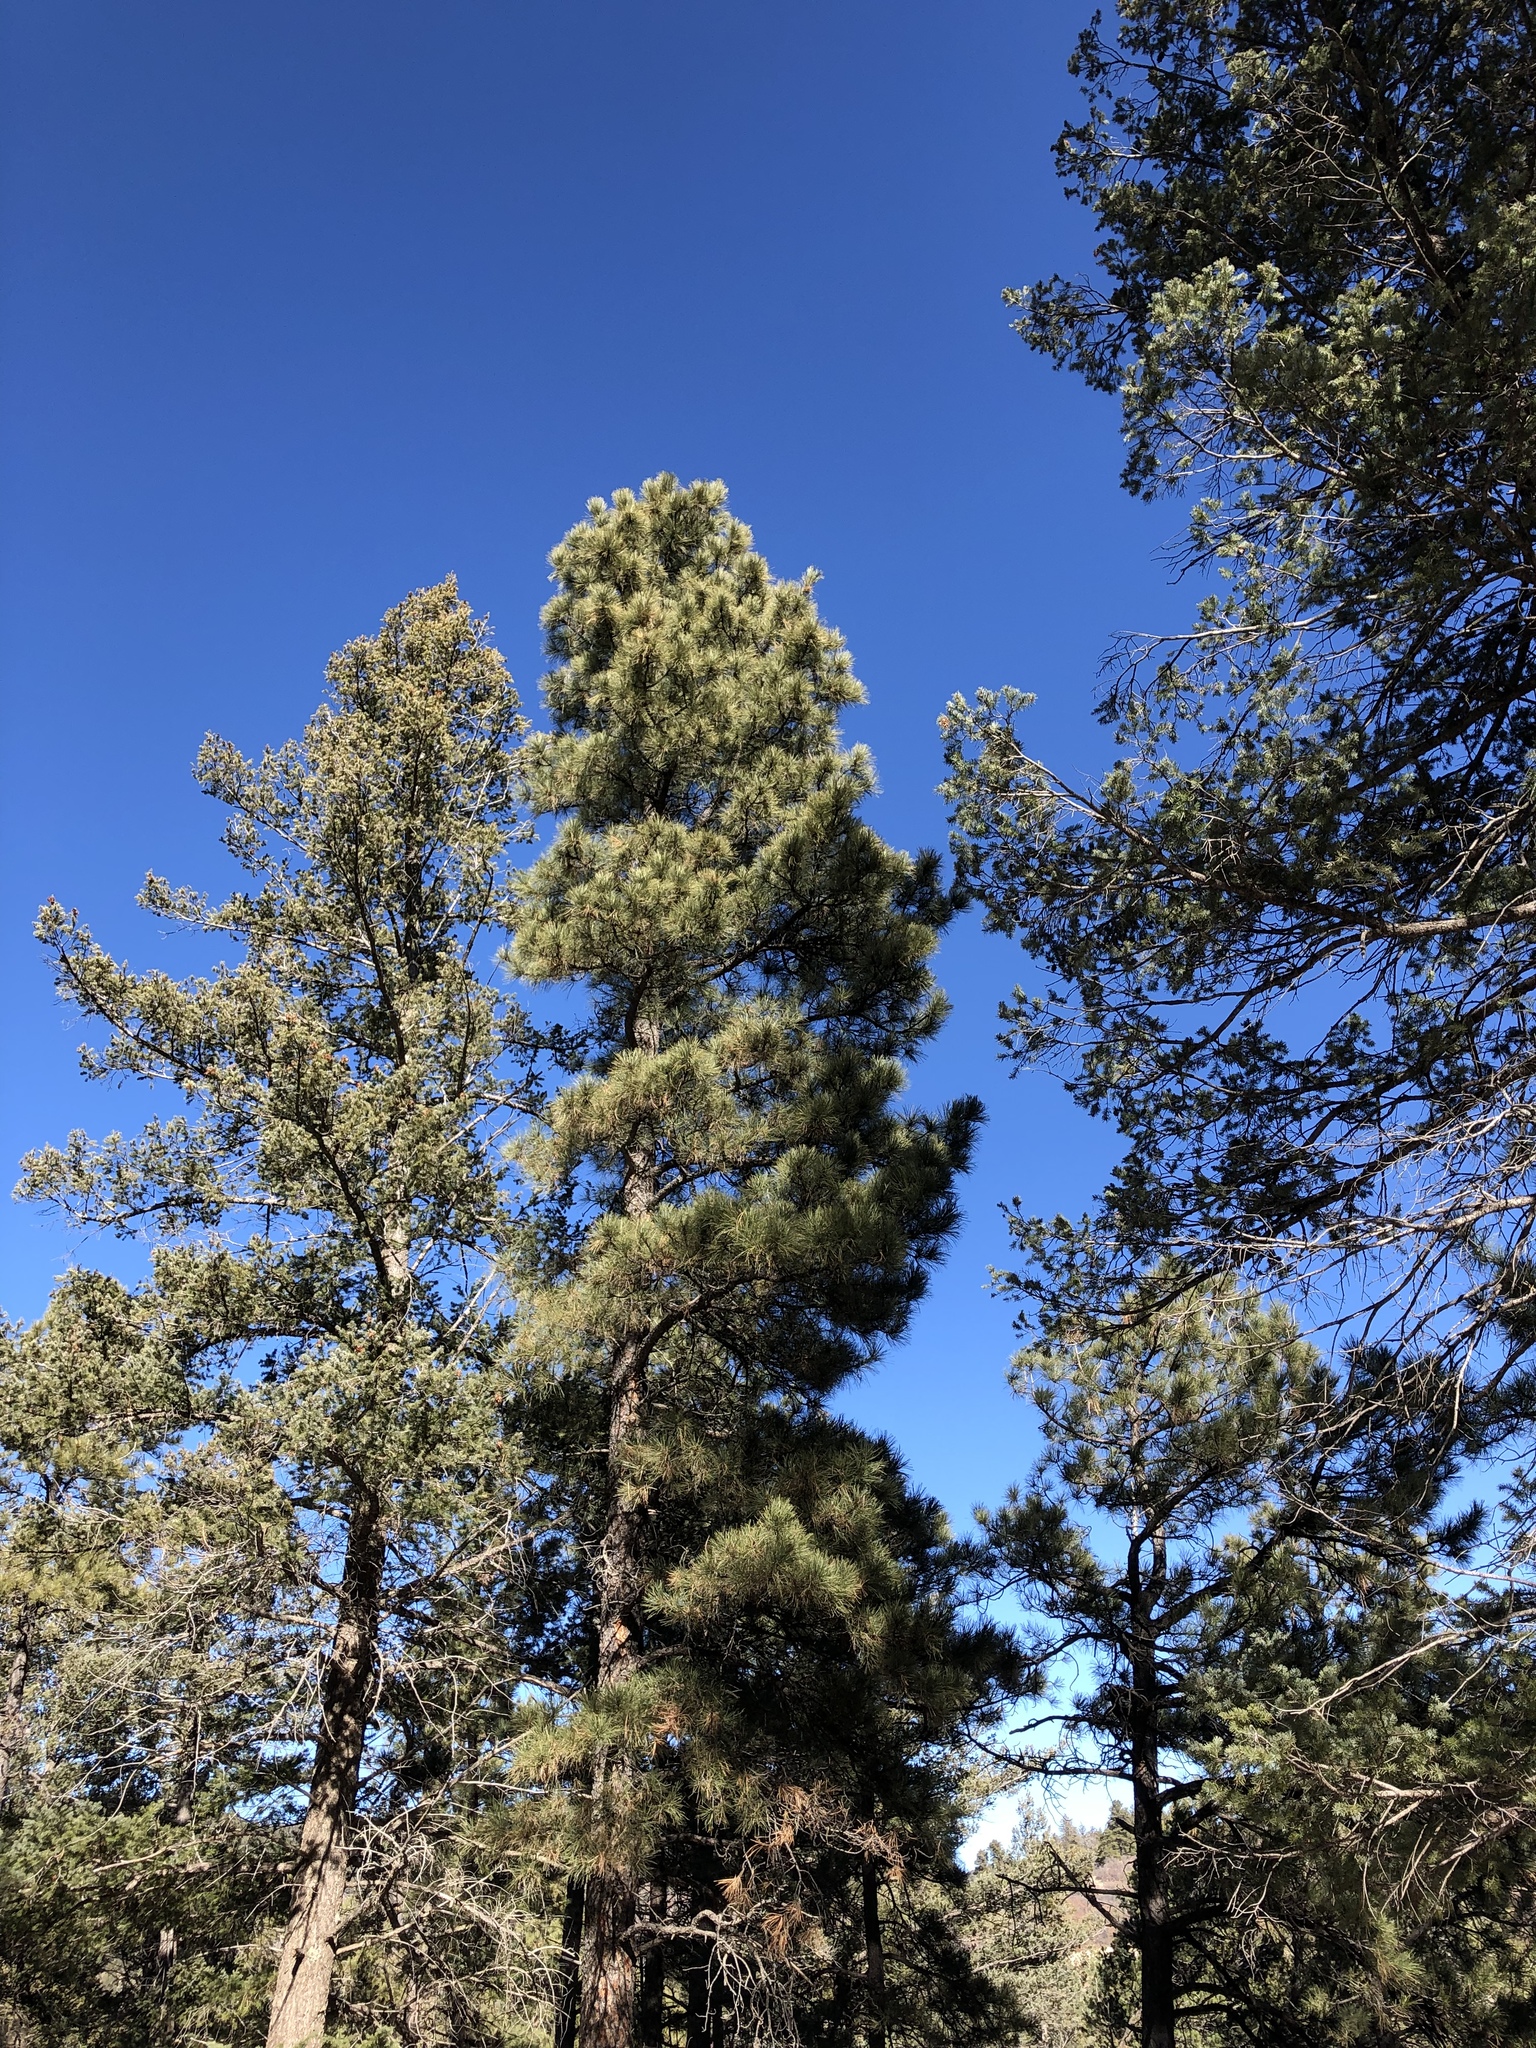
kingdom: Plantae
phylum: Tracheophyta
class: Pinopsida
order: Pinales
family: Pinaceae
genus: Pinus
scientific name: Pinus ponderosa
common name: Western yellow-pine
